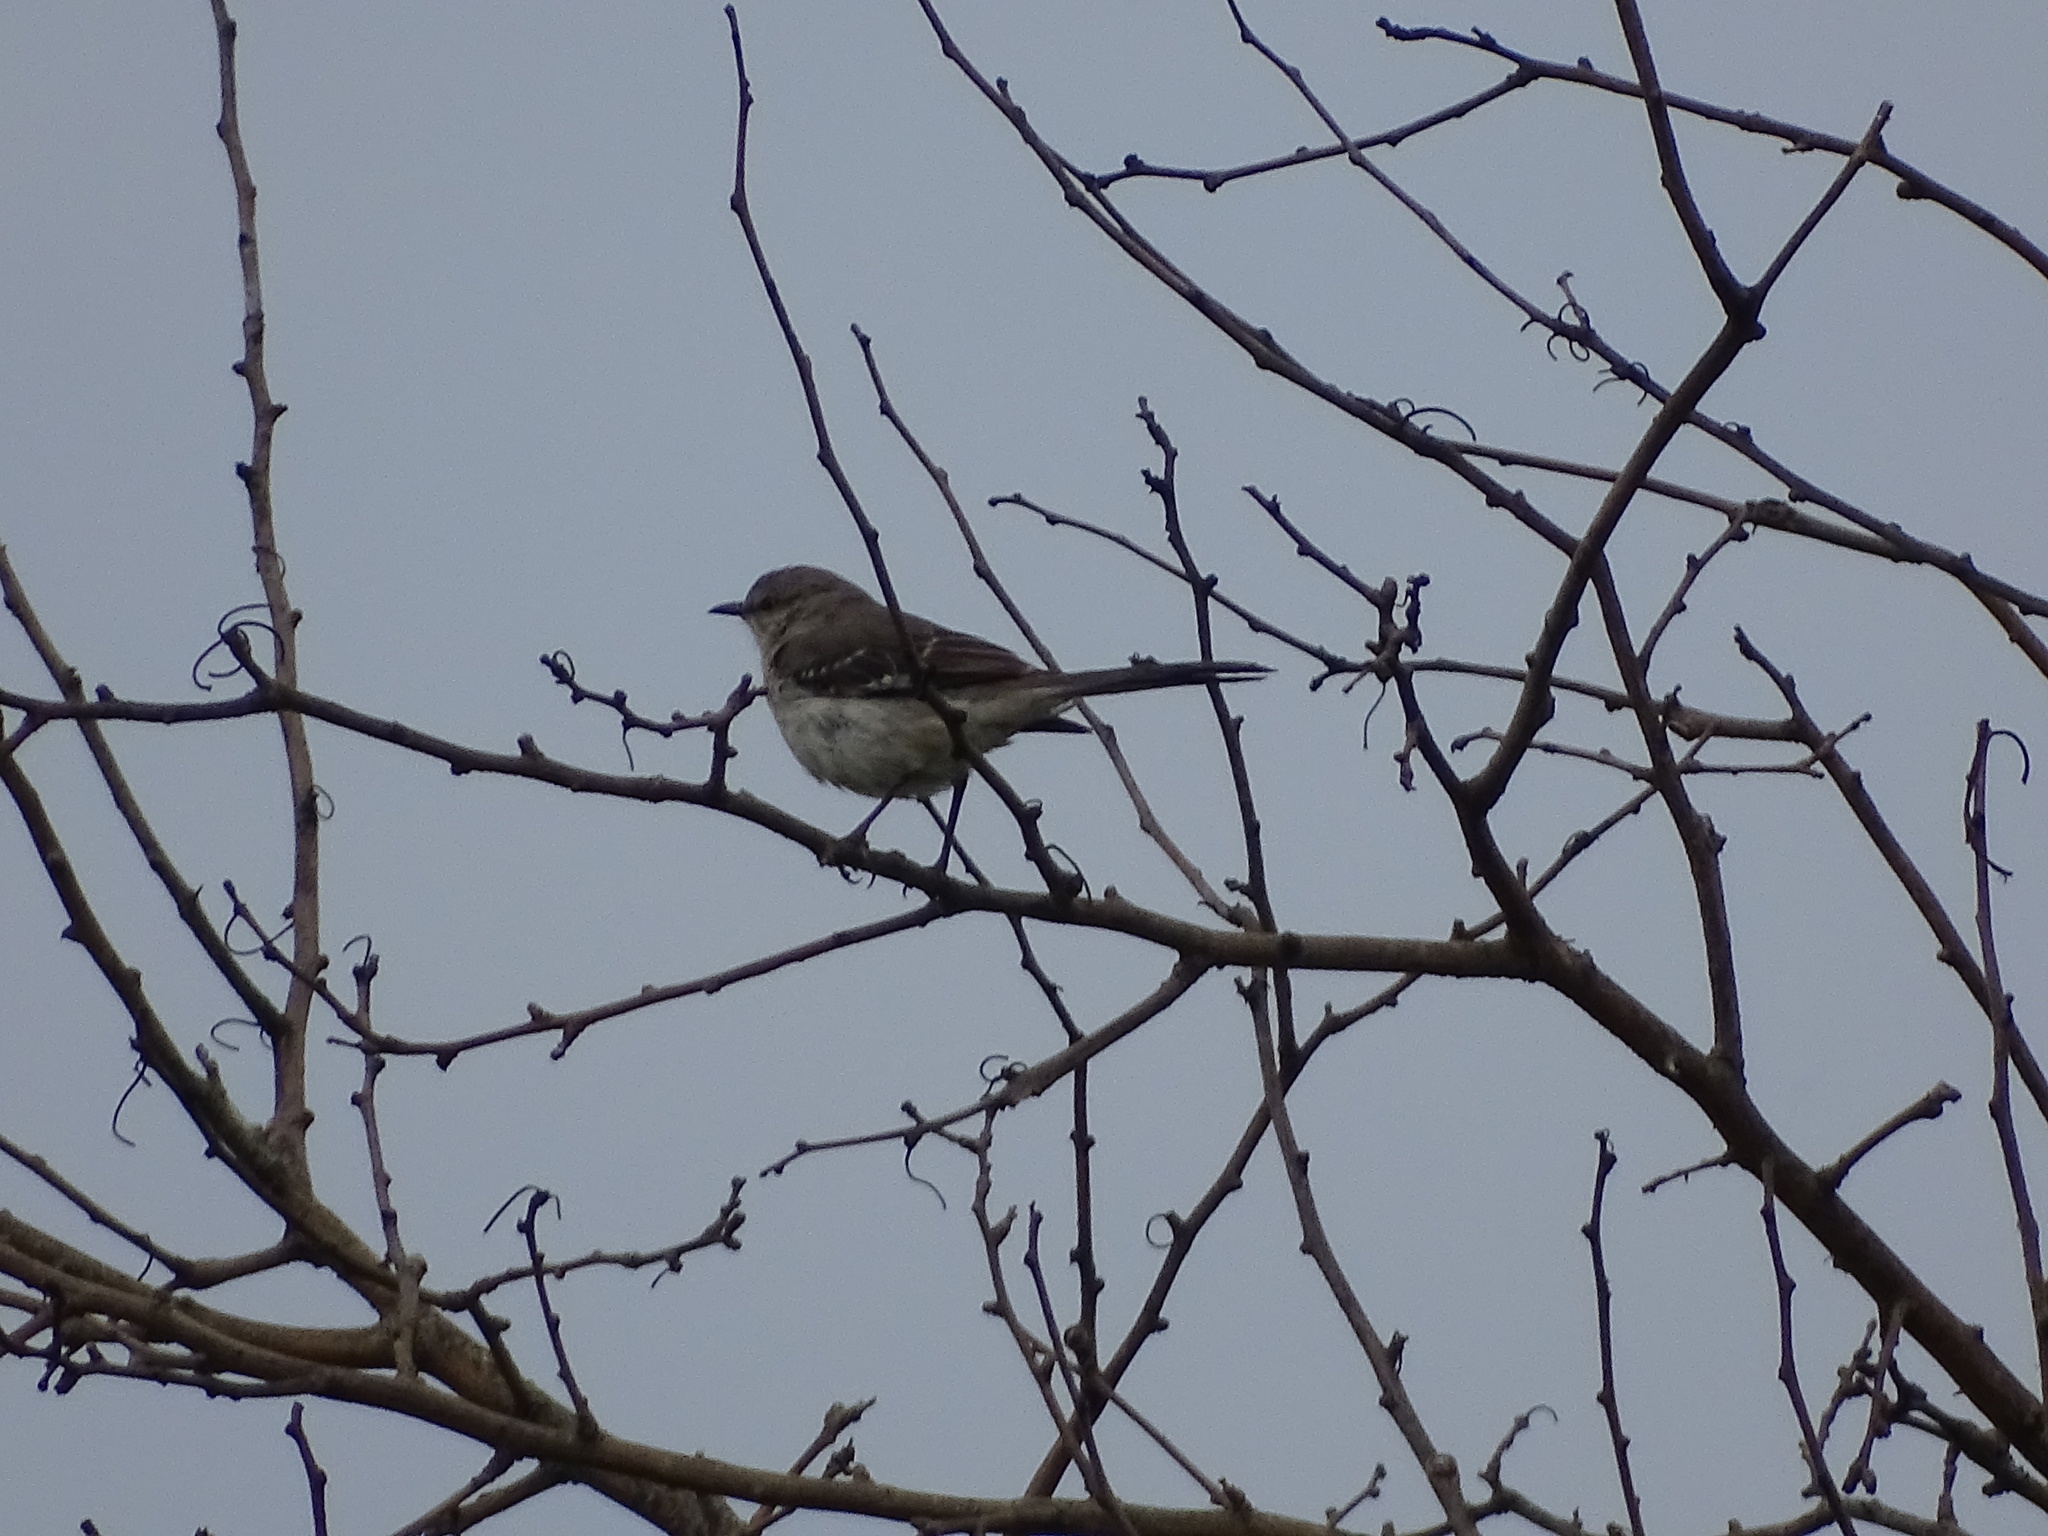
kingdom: Animalia
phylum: Chordata
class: Aves
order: Passeriformes
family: Mimidae
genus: Mimus
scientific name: Mimus polyglottos
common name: Northern mockingbird
